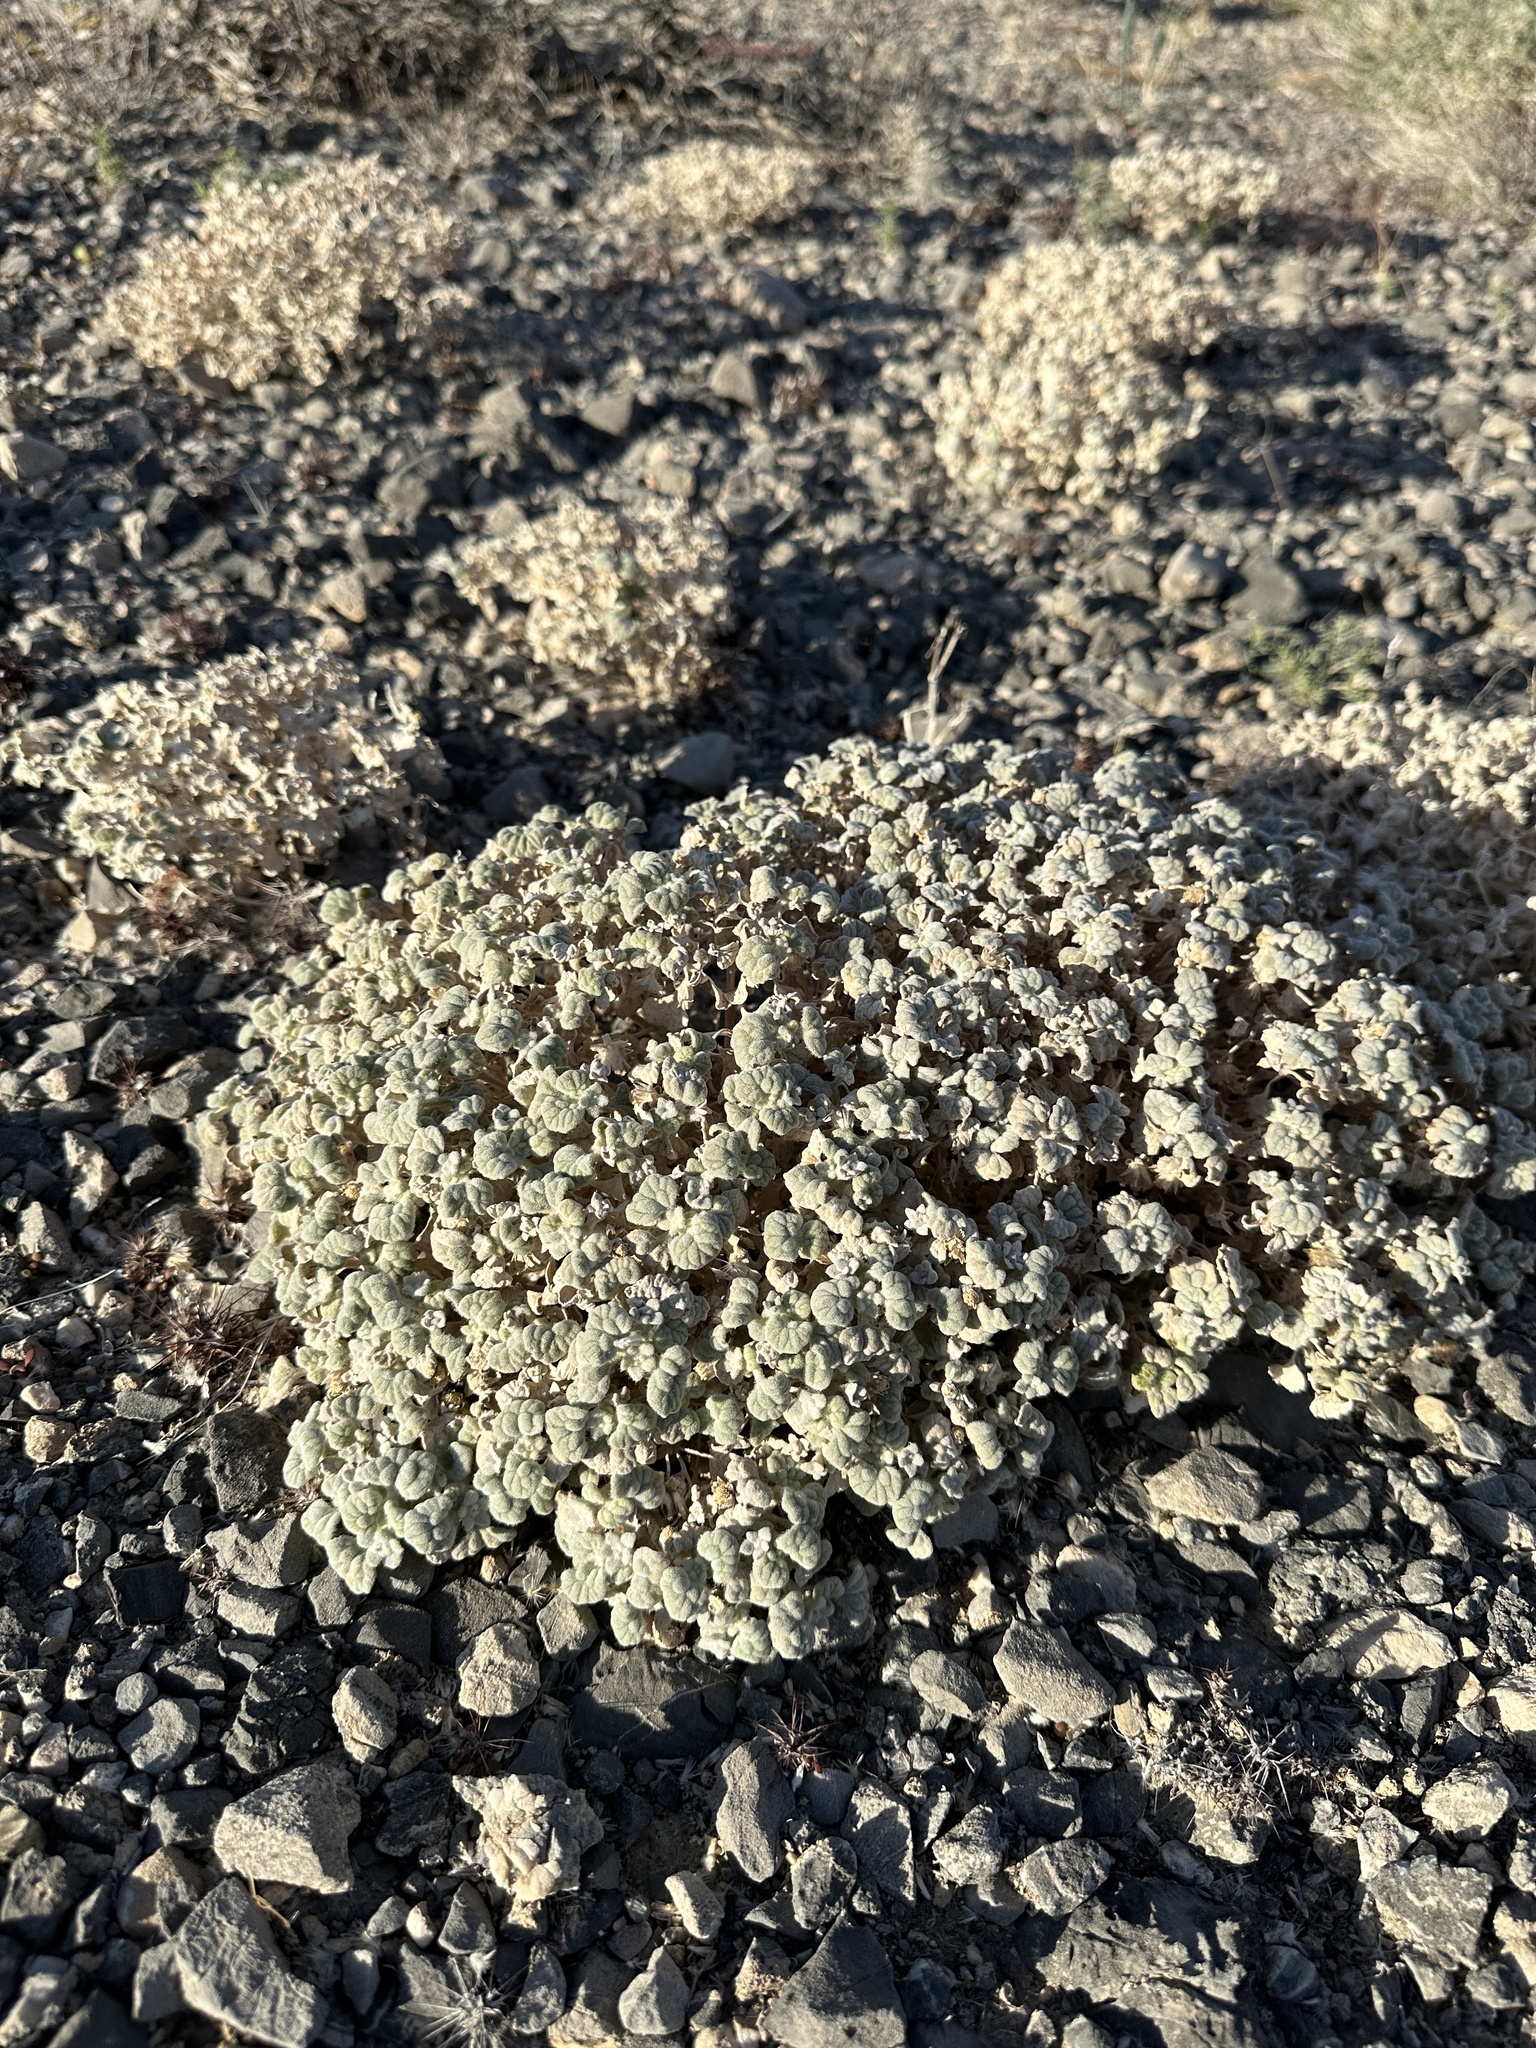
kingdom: Plantae
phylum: Tracheophyta
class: Magnoliopsida
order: Asterales
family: Asteraceae
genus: Psathyrotes
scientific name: Psathyrotes ramosissima
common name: Turtleback
